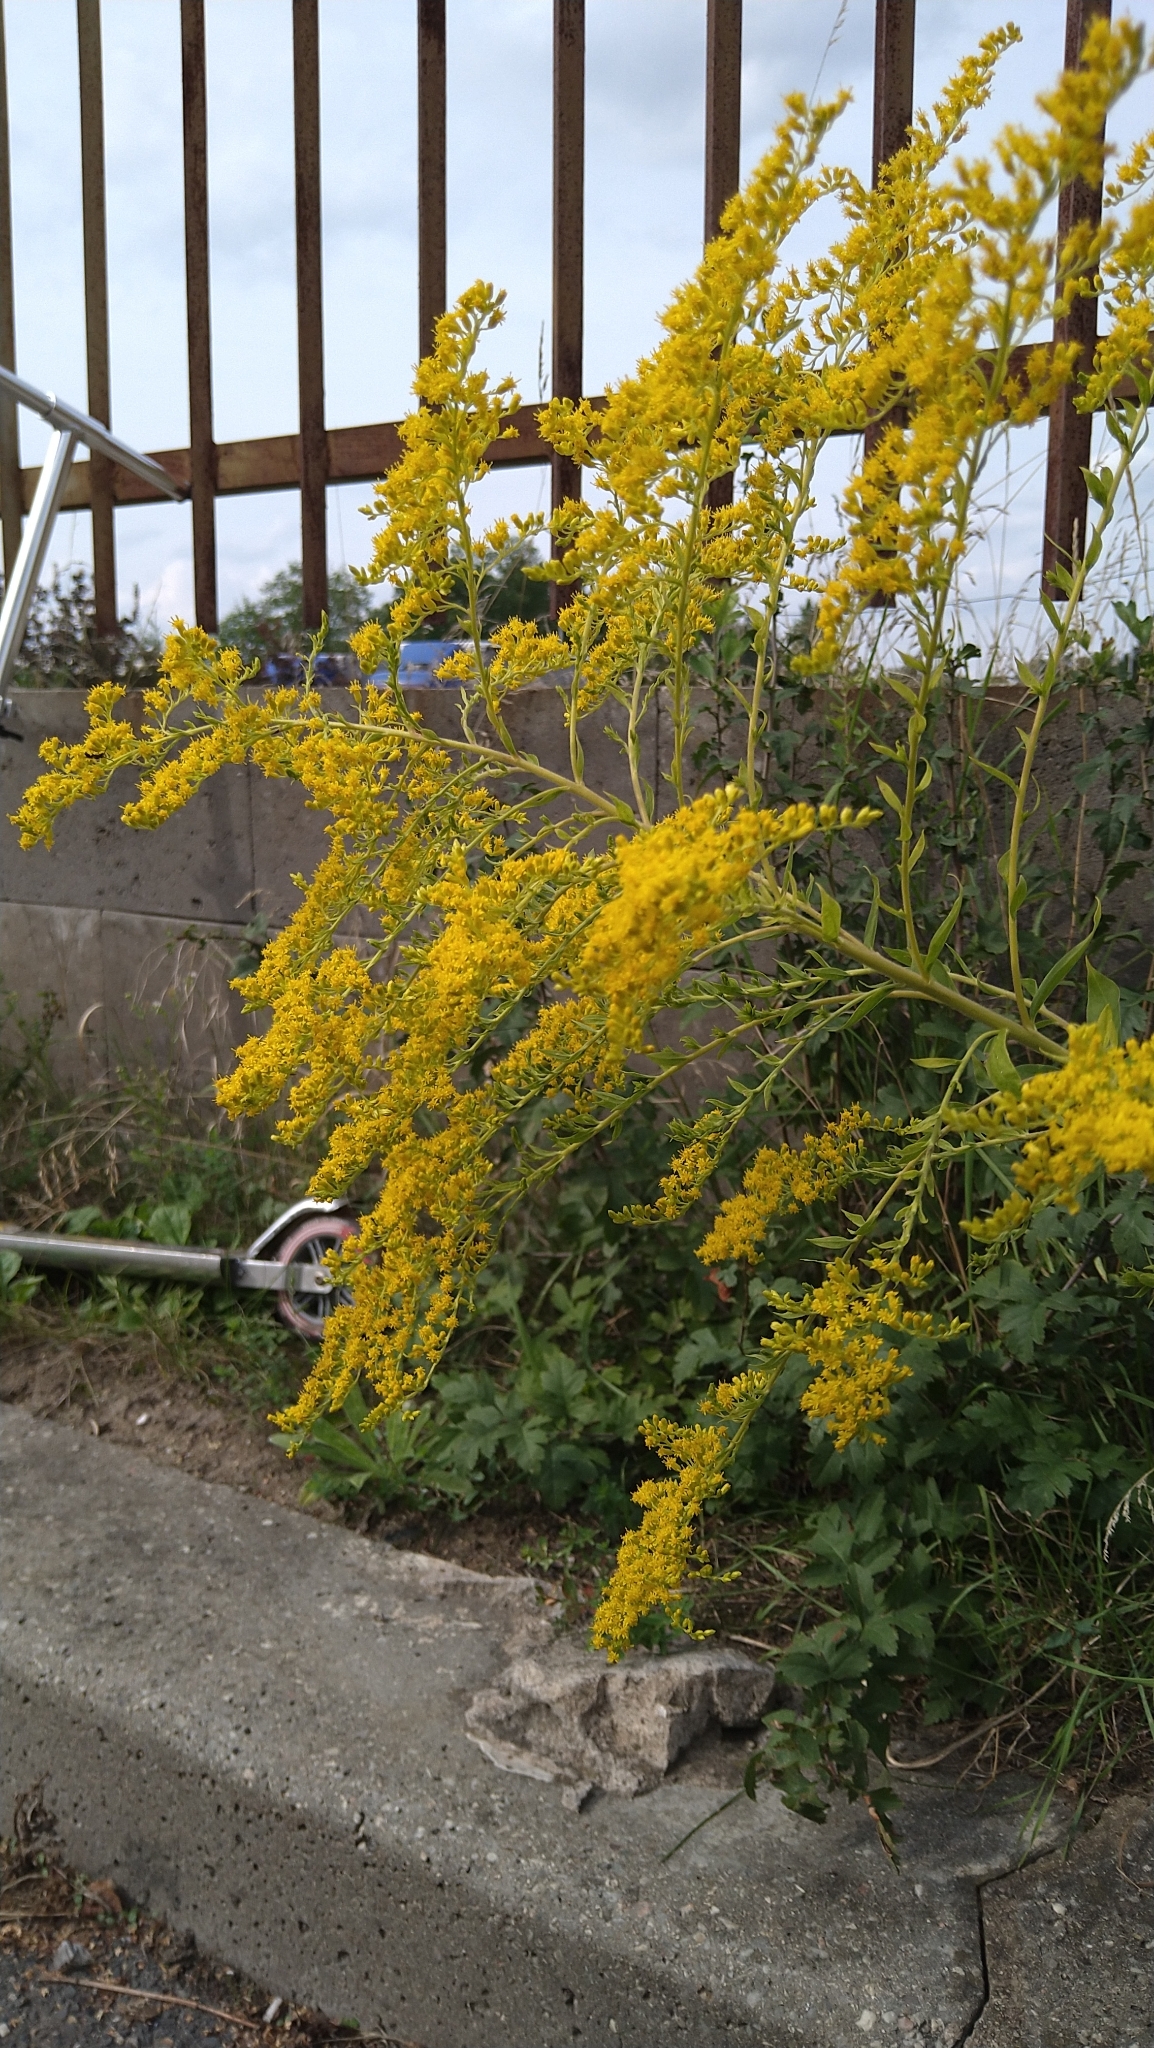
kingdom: Plantae
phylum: Tracheophyta
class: Magnoliopsida
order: Asterales
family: Asteraceae
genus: Solidago
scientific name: Solidago canadensis
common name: Canada goldenrod
